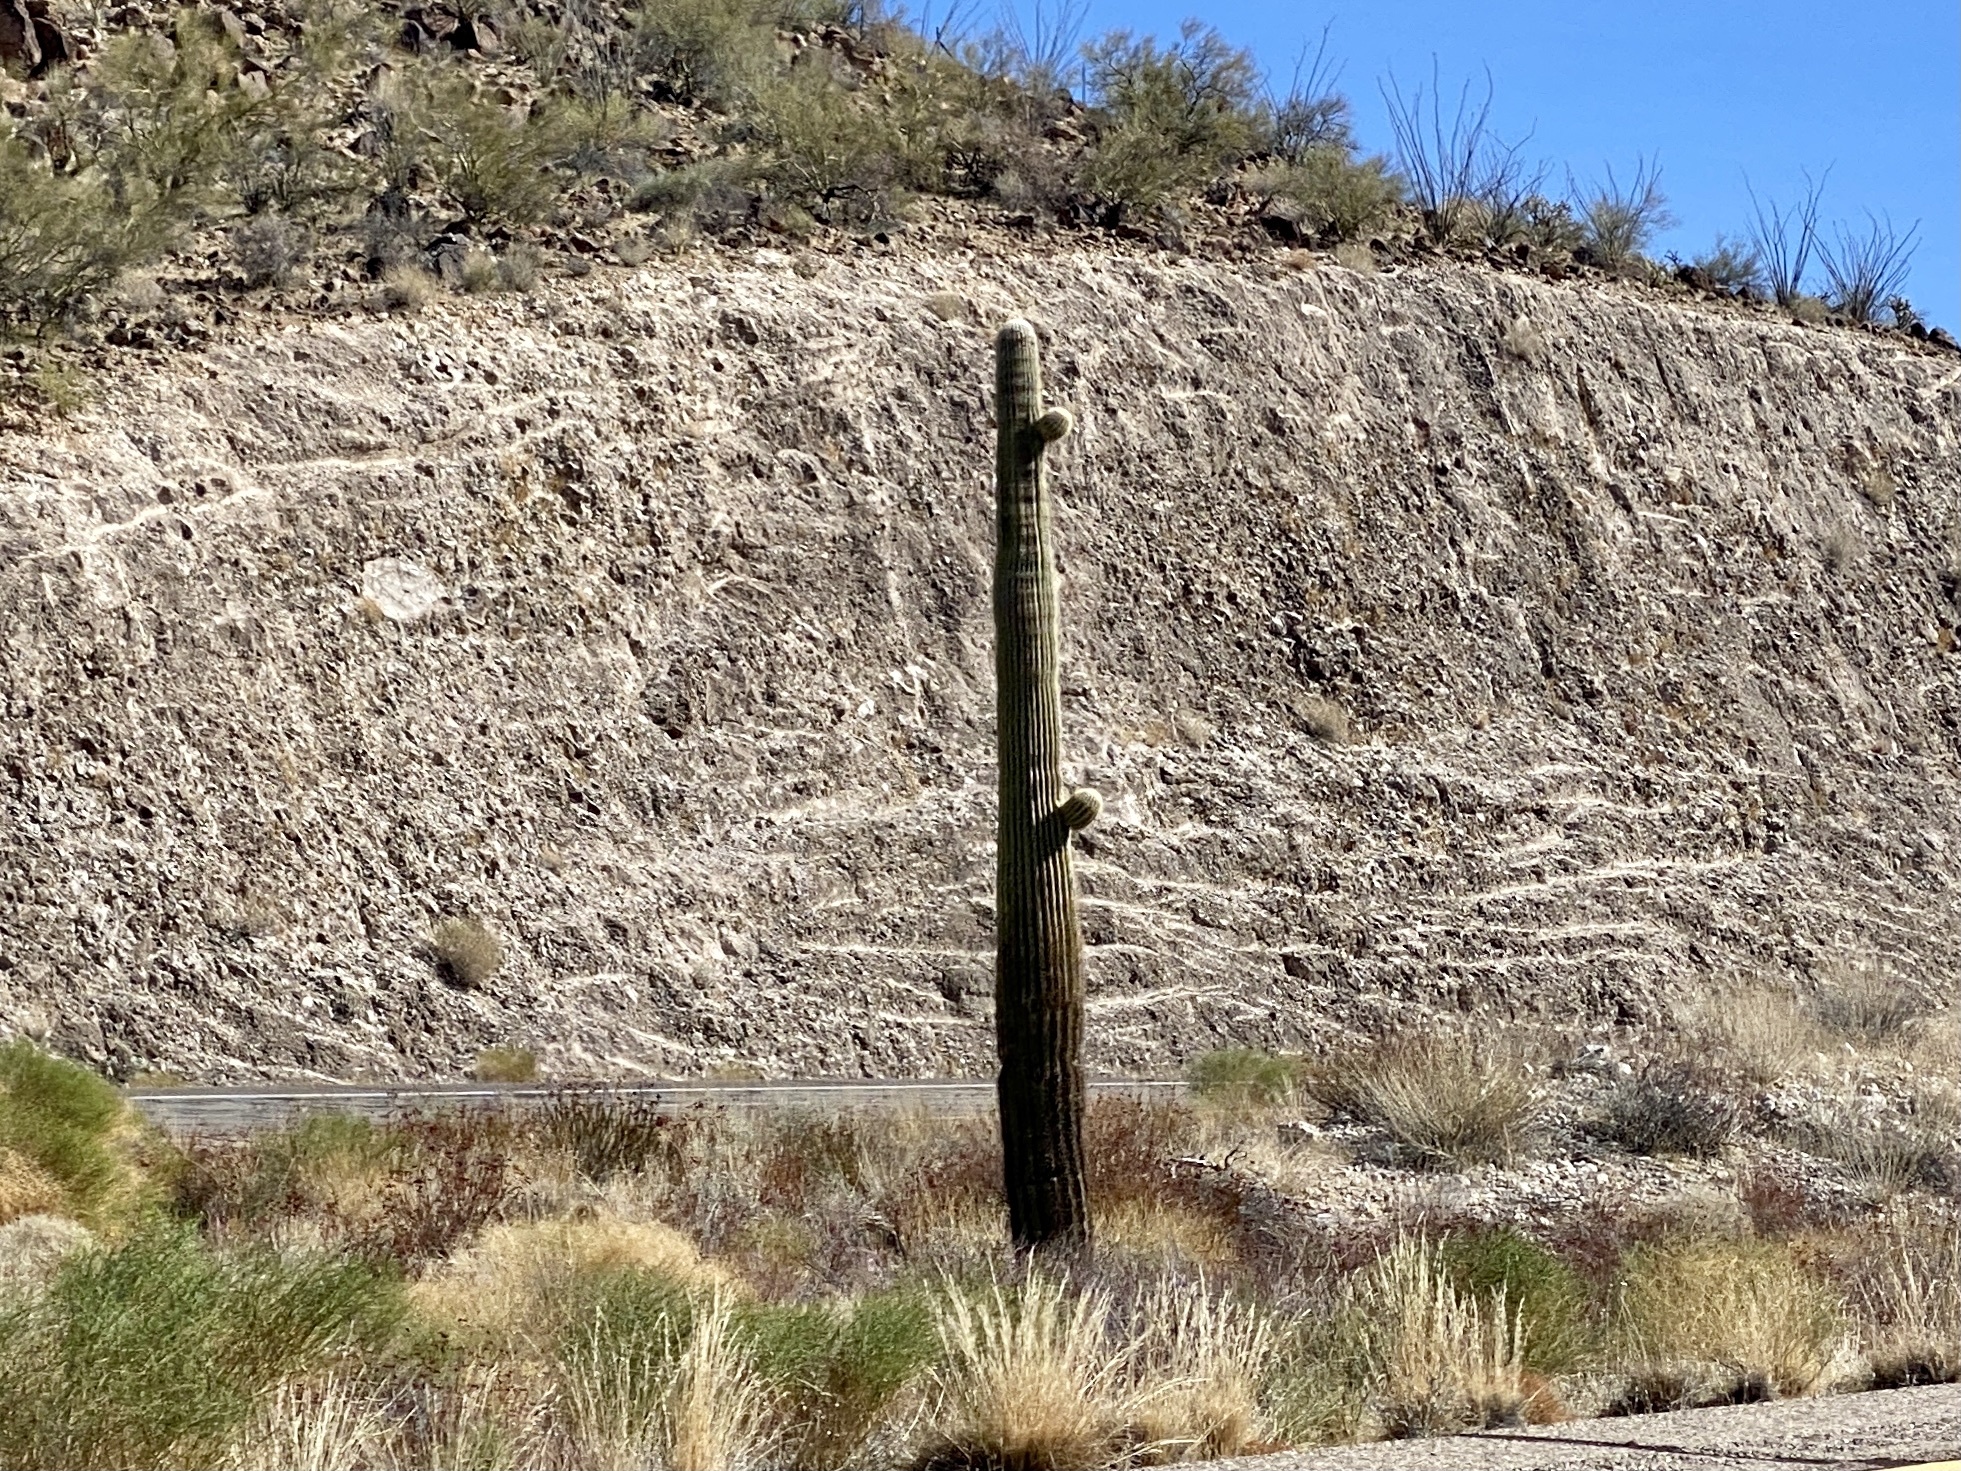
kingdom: Plantae
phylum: Tracheophyta
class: Magnoliopsida
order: Caryophyllales
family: Cactaceae
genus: Carnegiea
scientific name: Carnegiea gigantea
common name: Saguaro
